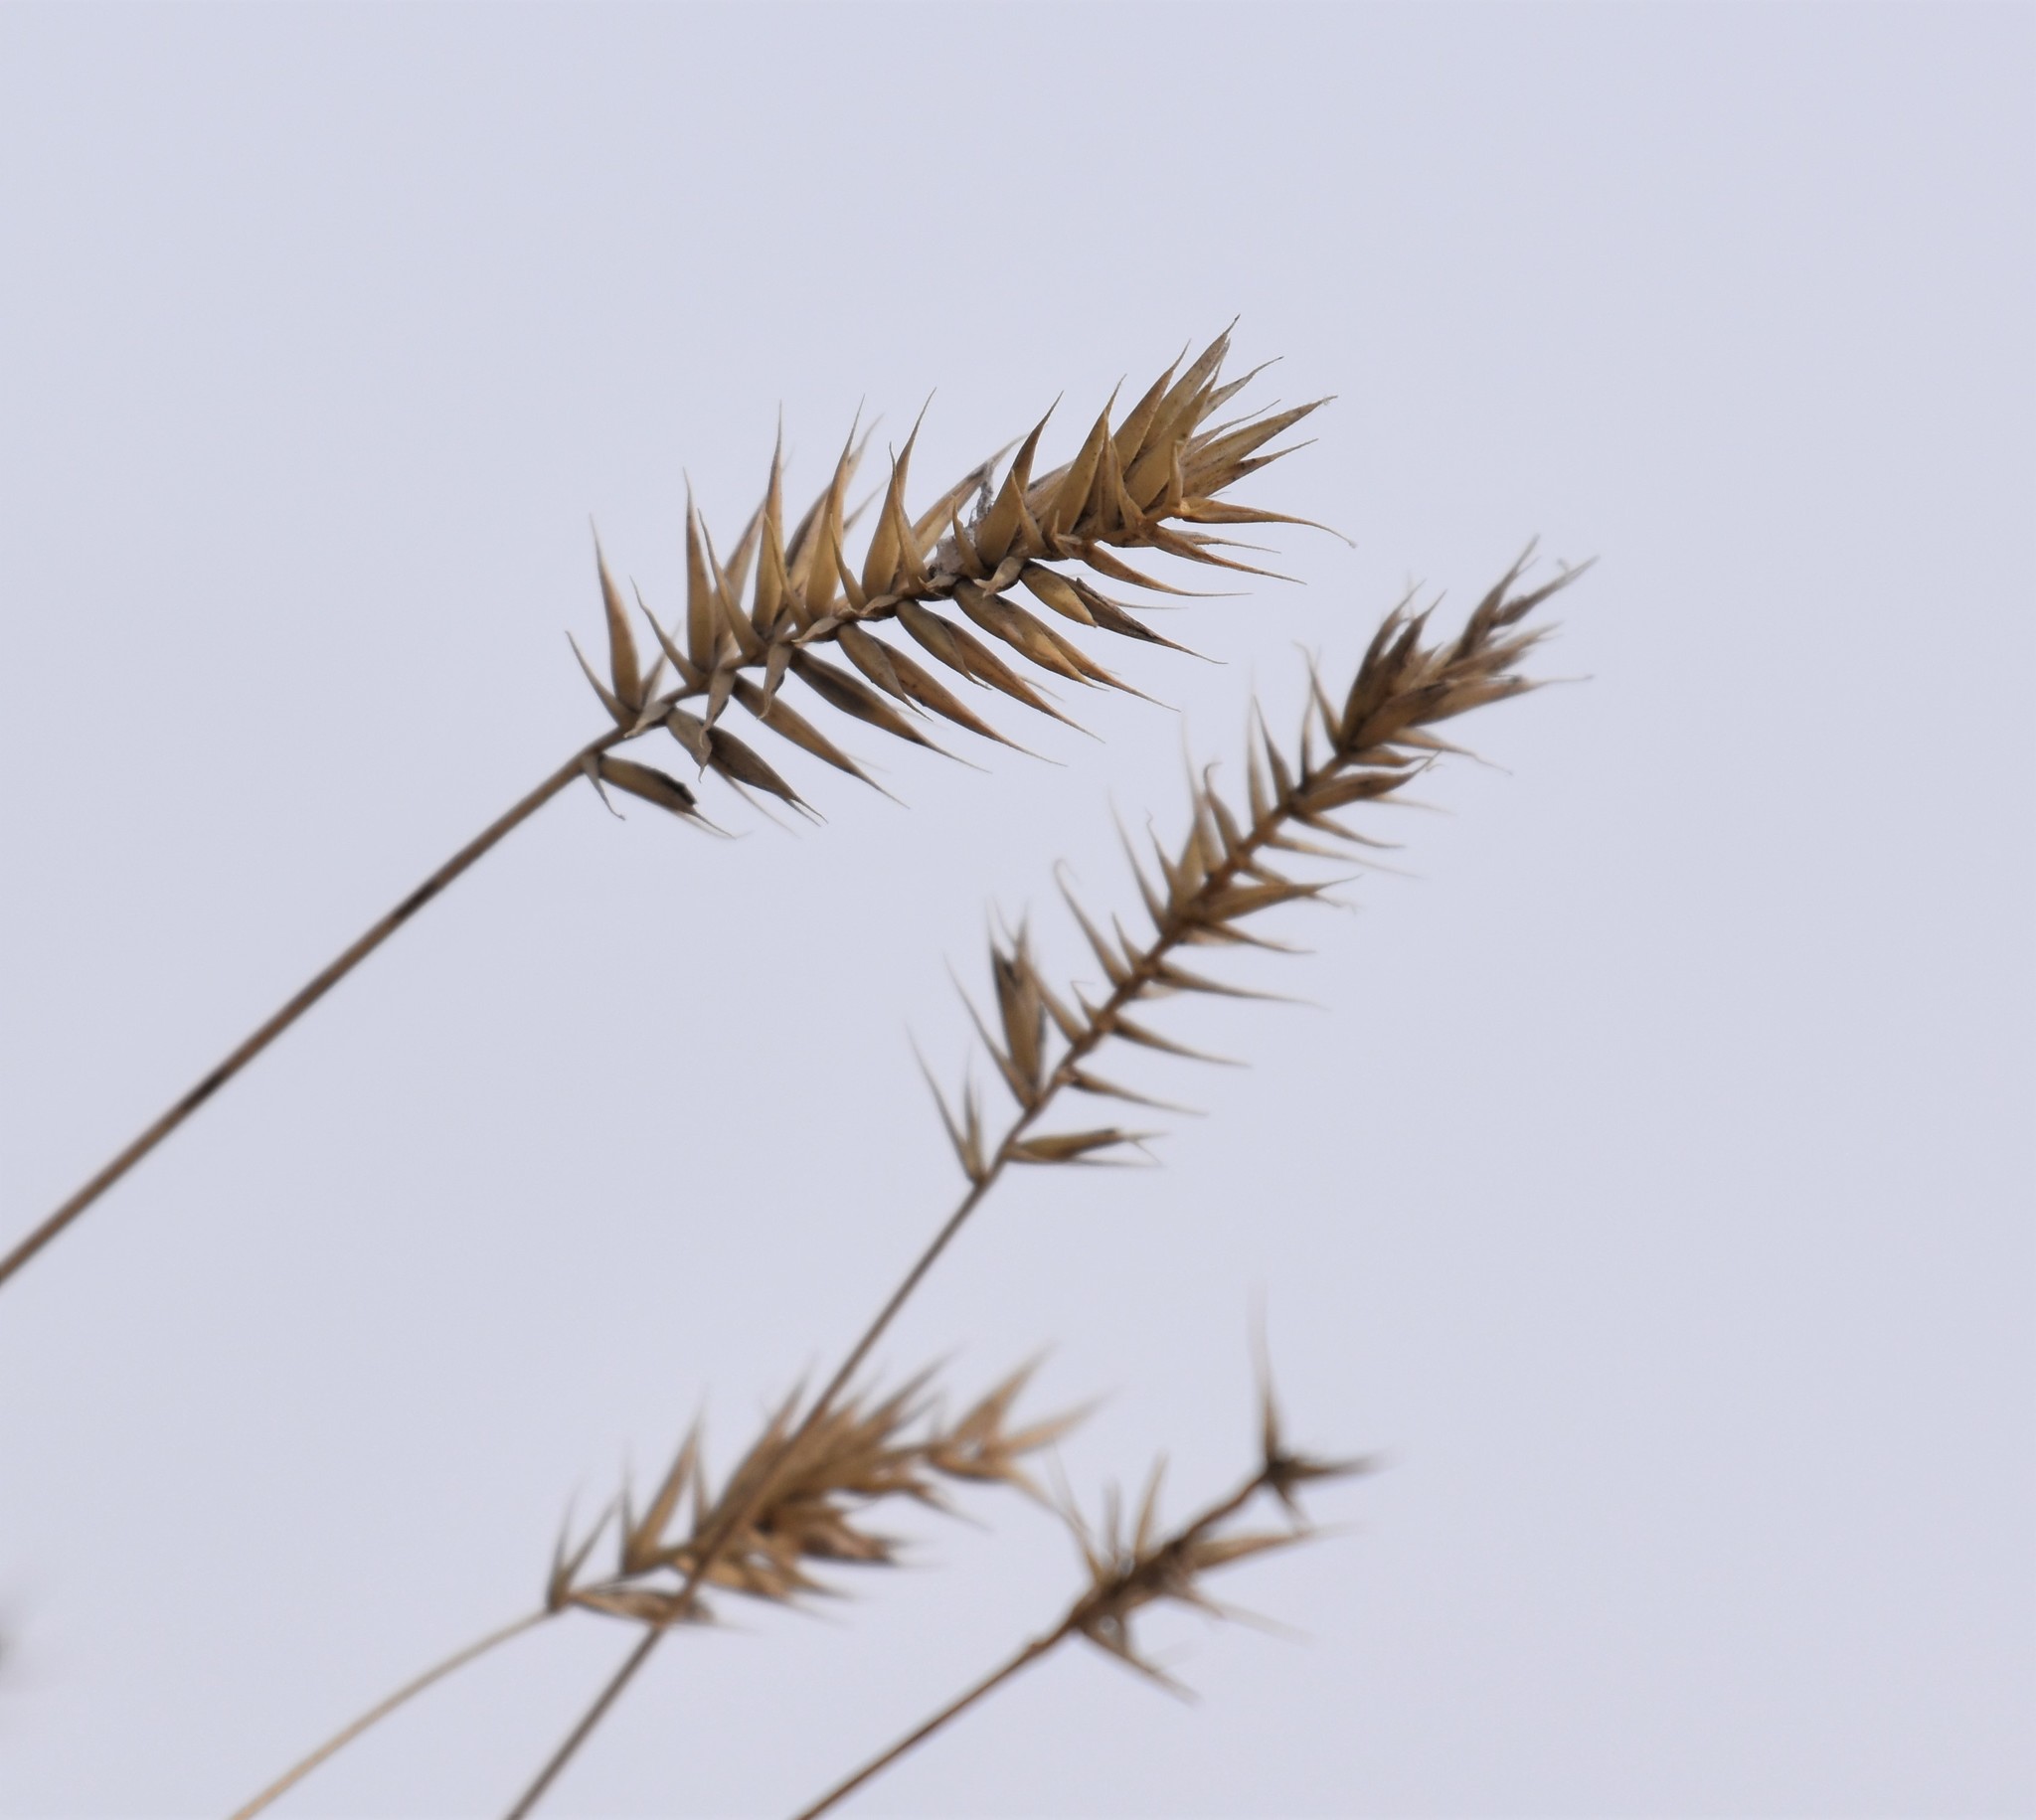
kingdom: Plantae
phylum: Tracheophyta
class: Liliopsida
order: Poales
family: Poaceae
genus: Agropyron
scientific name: Agropyron cristatum
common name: Crested wheatgrass
